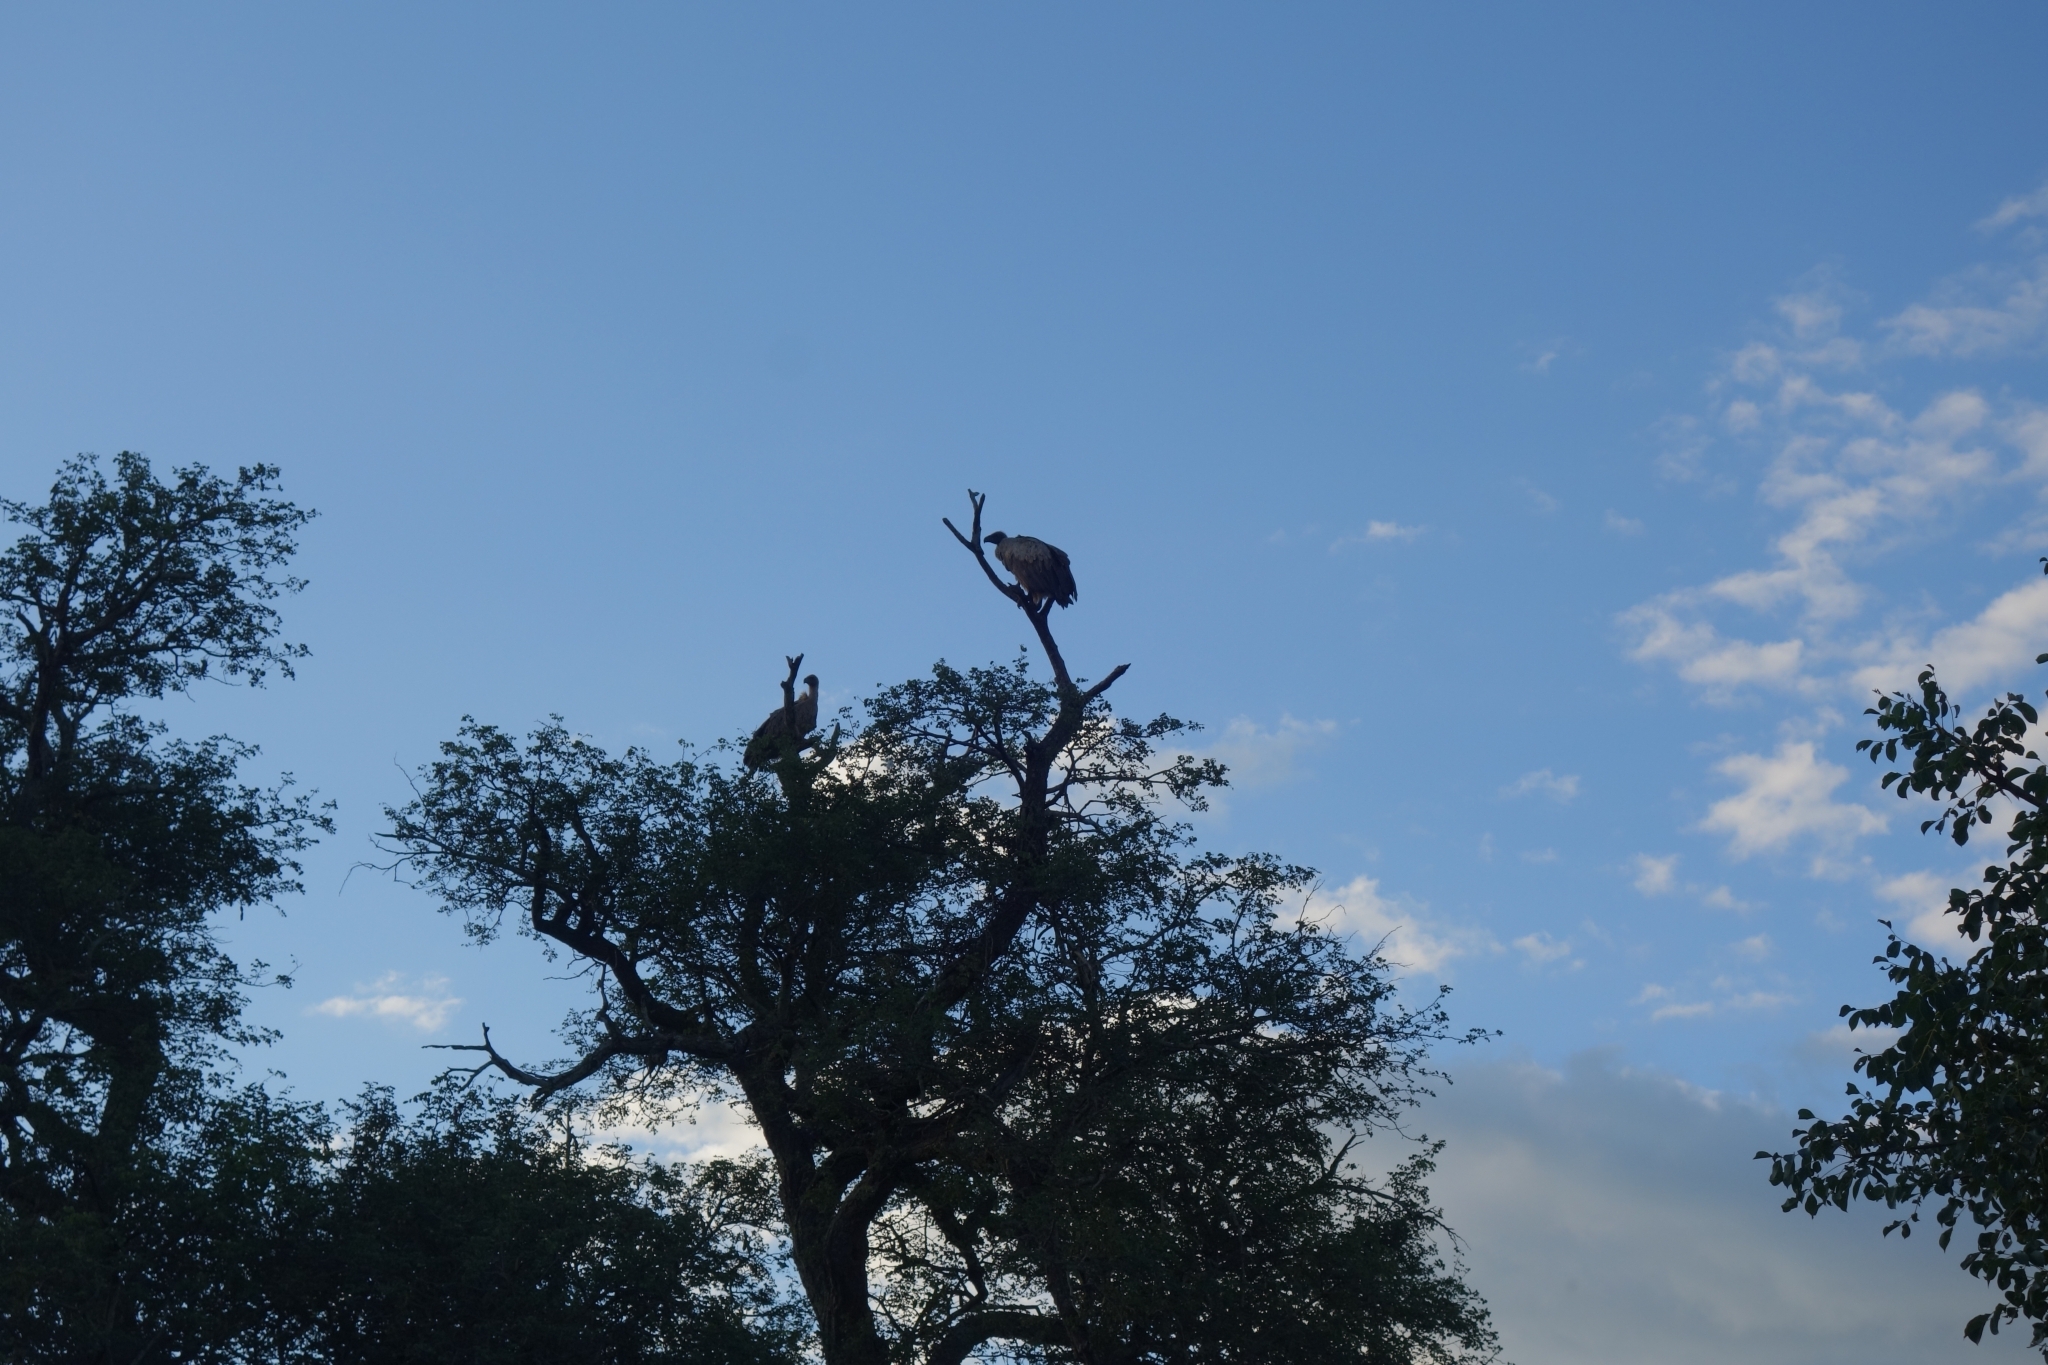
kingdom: Animalia
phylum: Chordata
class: Aves
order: Accipitriformes
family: Accipitridae
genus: Gyps
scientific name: Gyps africanus
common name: White-backed vulture
